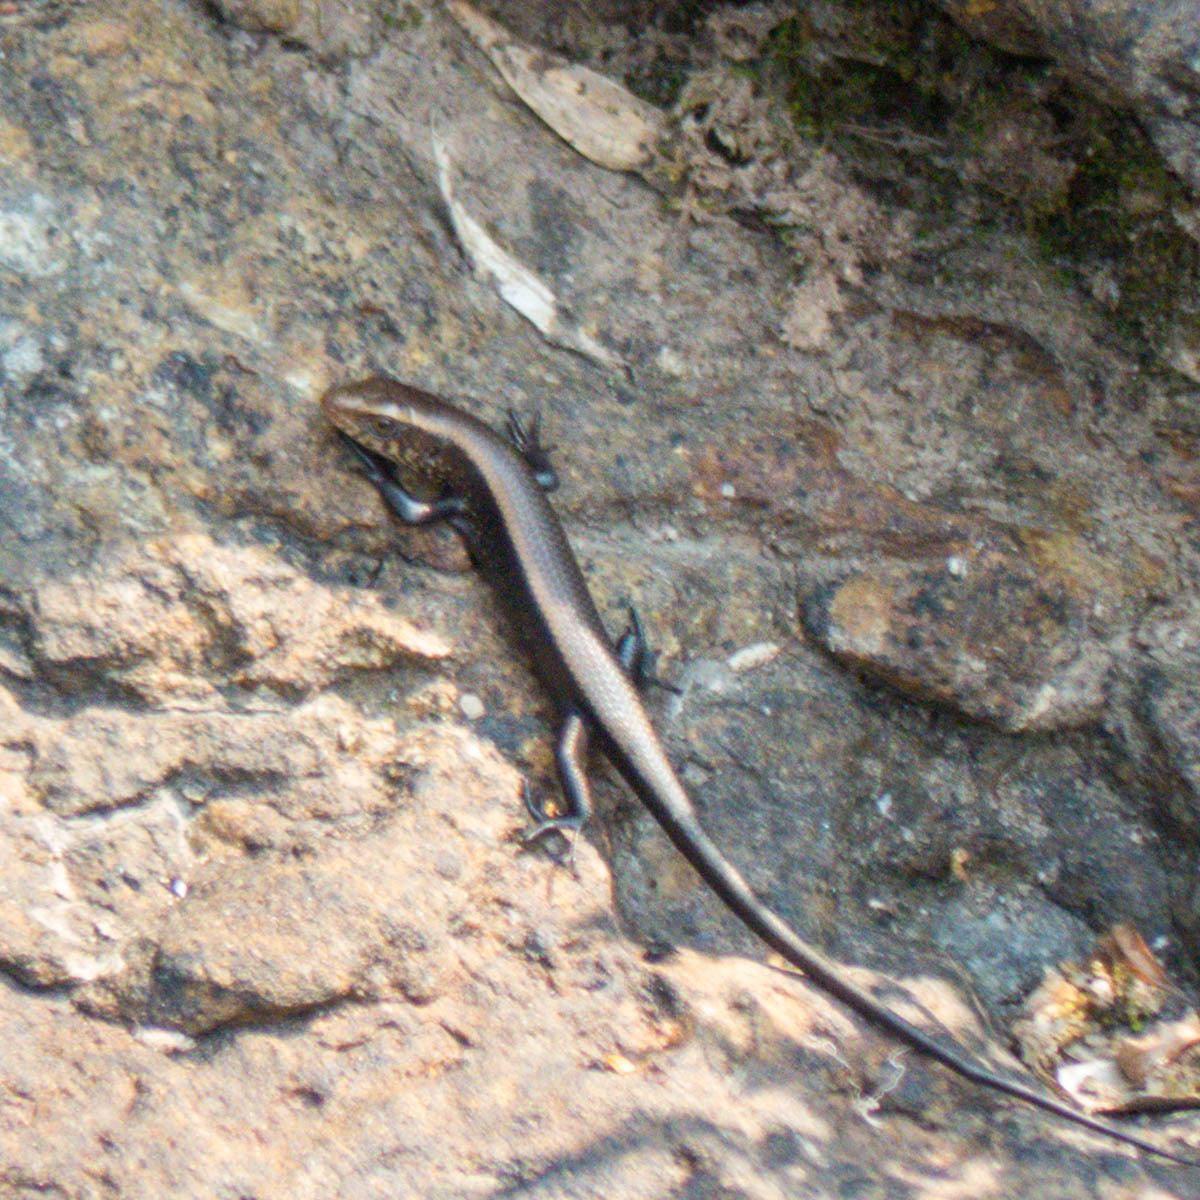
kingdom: Animalia
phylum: Chordata
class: Squamata
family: Scincidae
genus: Eutropis
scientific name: Eutropis multifasciata
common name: Common mabuya
